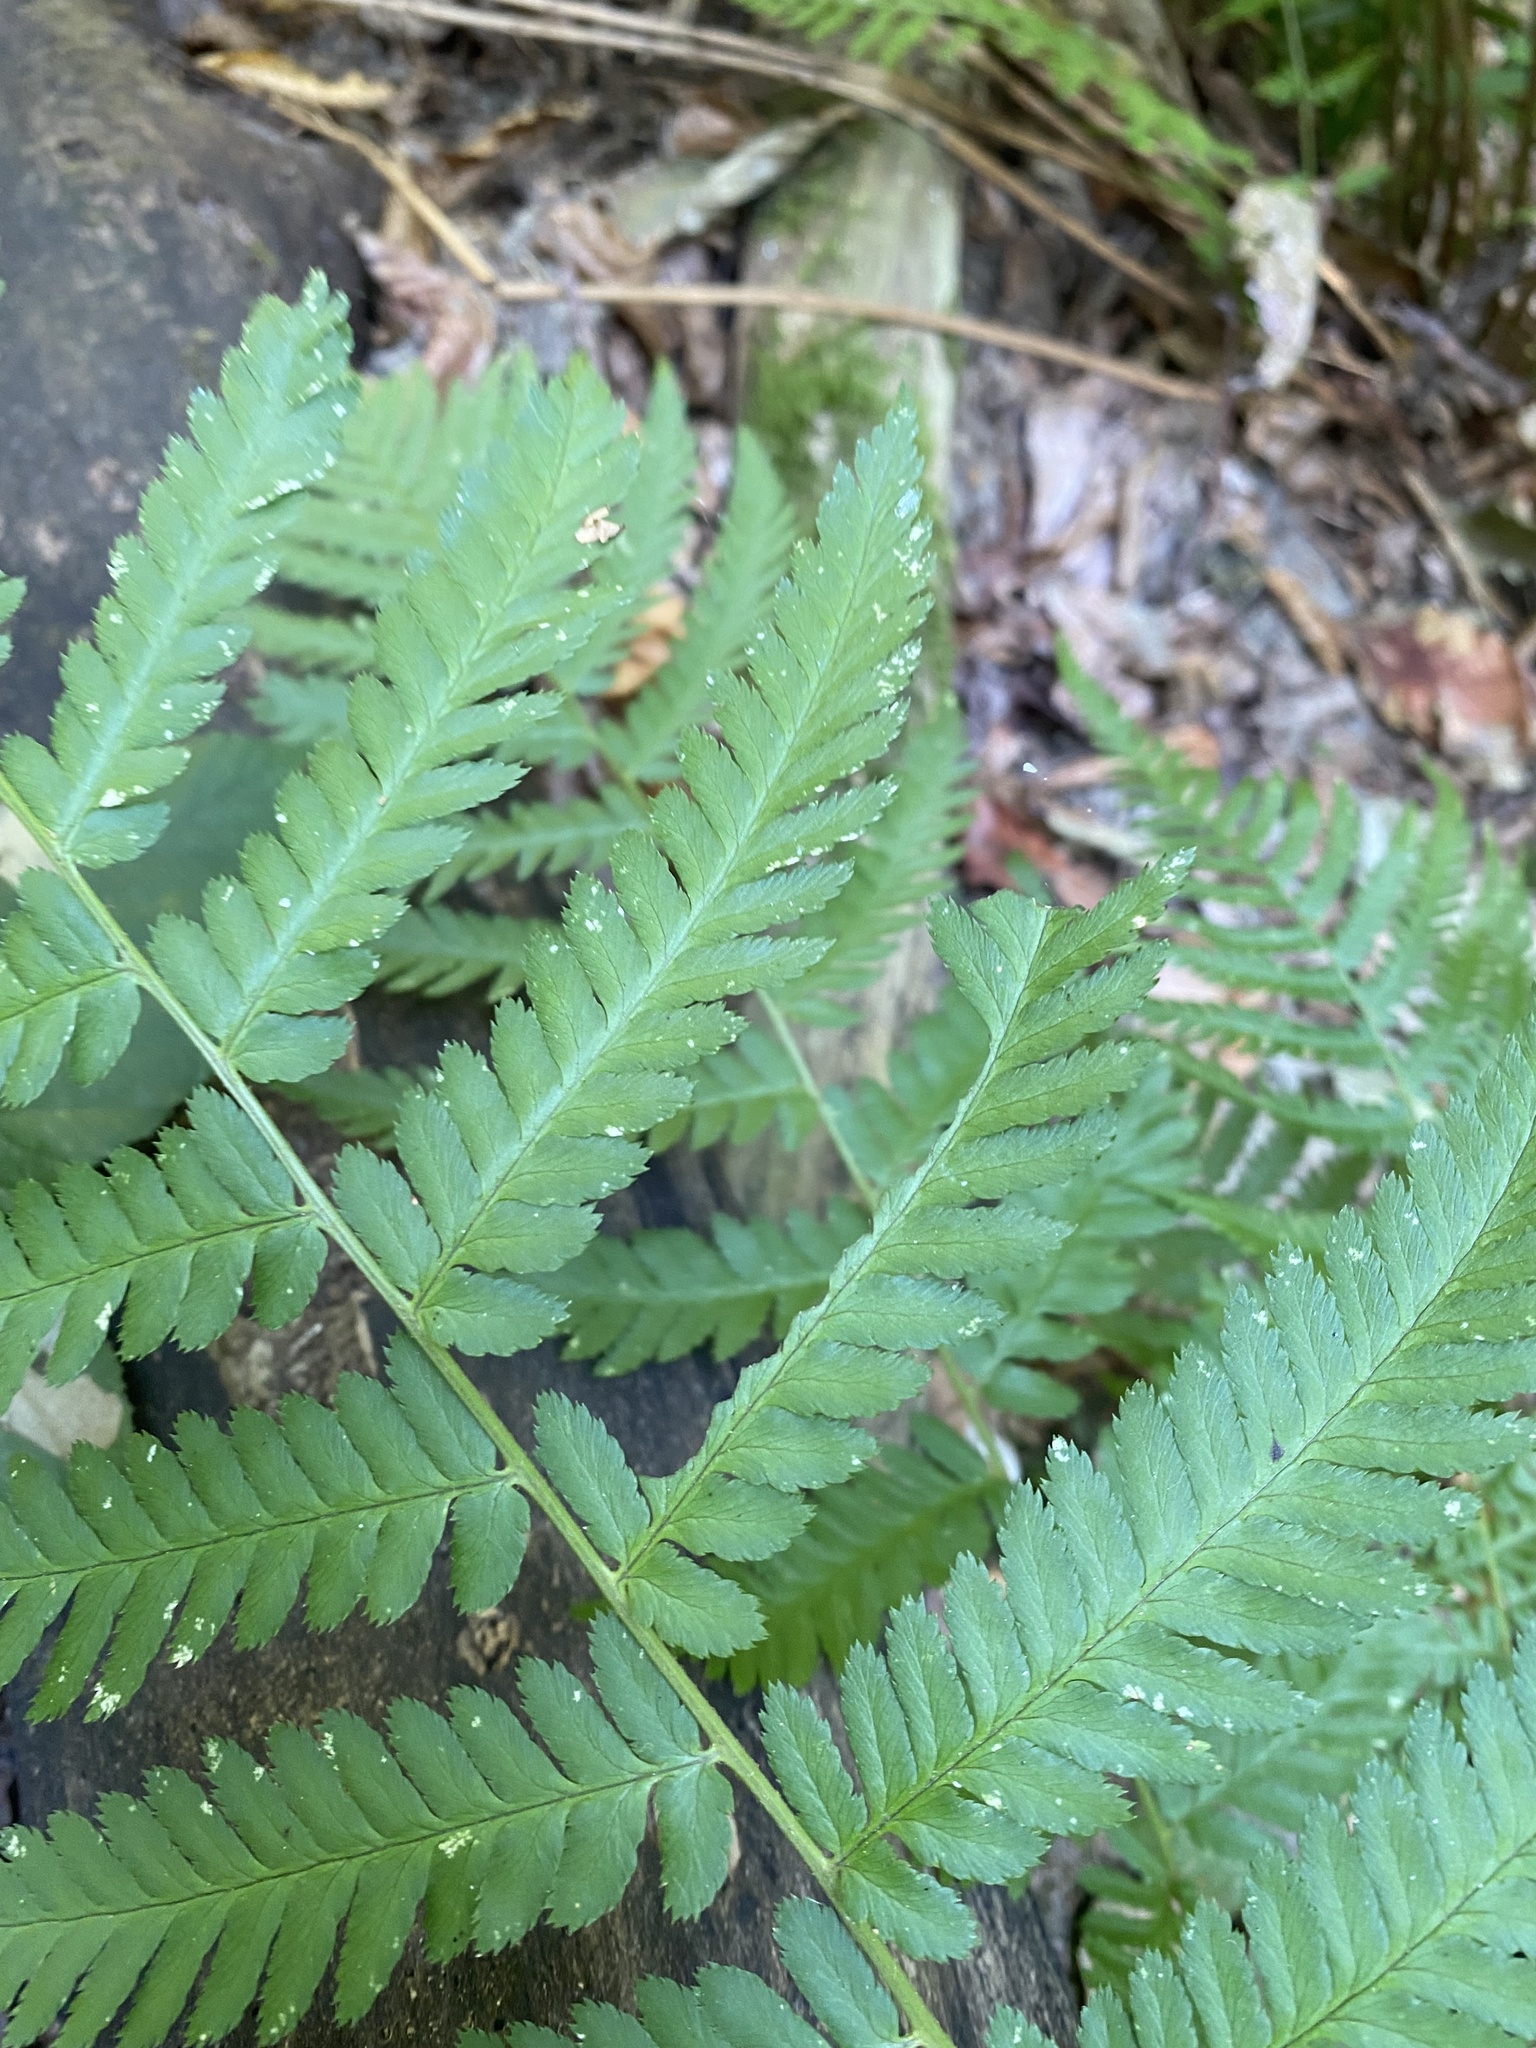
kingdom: Plantae
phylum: Tracheophyta
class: Polypodiopsida
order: Polypodiales
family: Dryopteridaceae
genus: Dryopteris
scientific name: Dryopteris filix-mas
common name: Male fern
